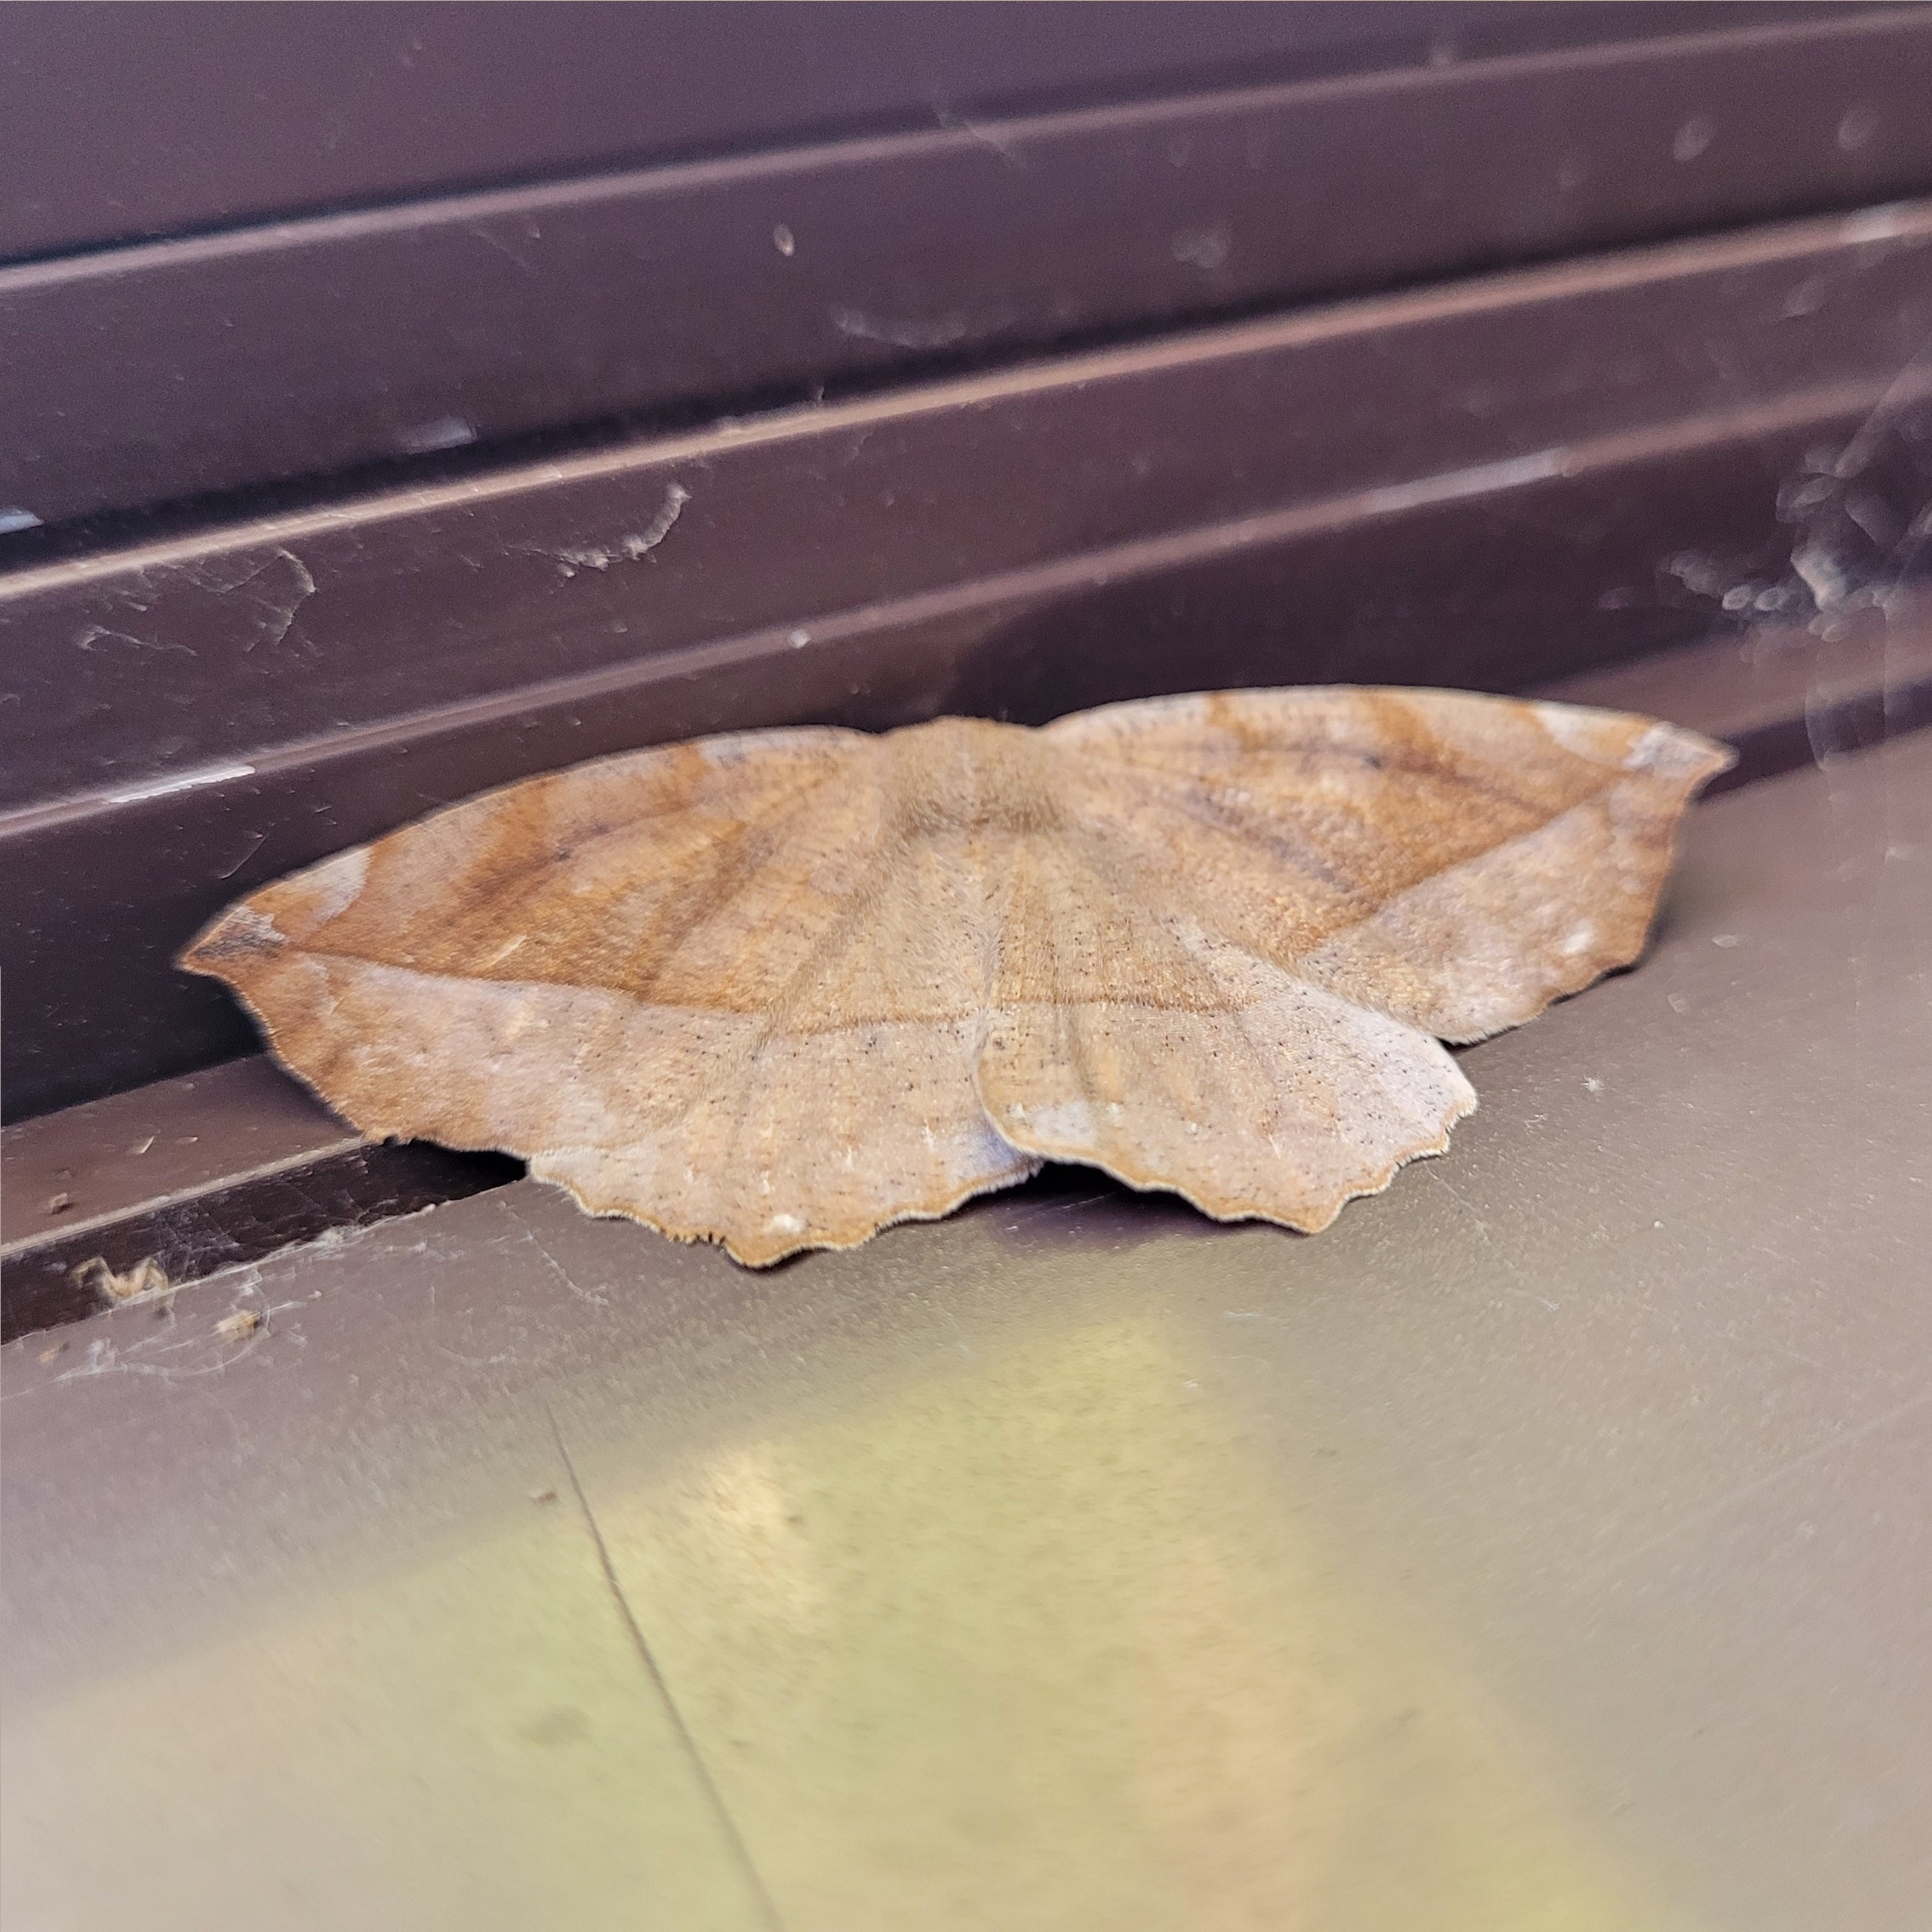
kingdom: Animalia
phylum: Arthropoda
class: Insecta
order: Lepidoptera
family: Geometridae
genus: Eutrapela
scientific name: Eutrapela clemataria
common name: Curved-toothed geometer
